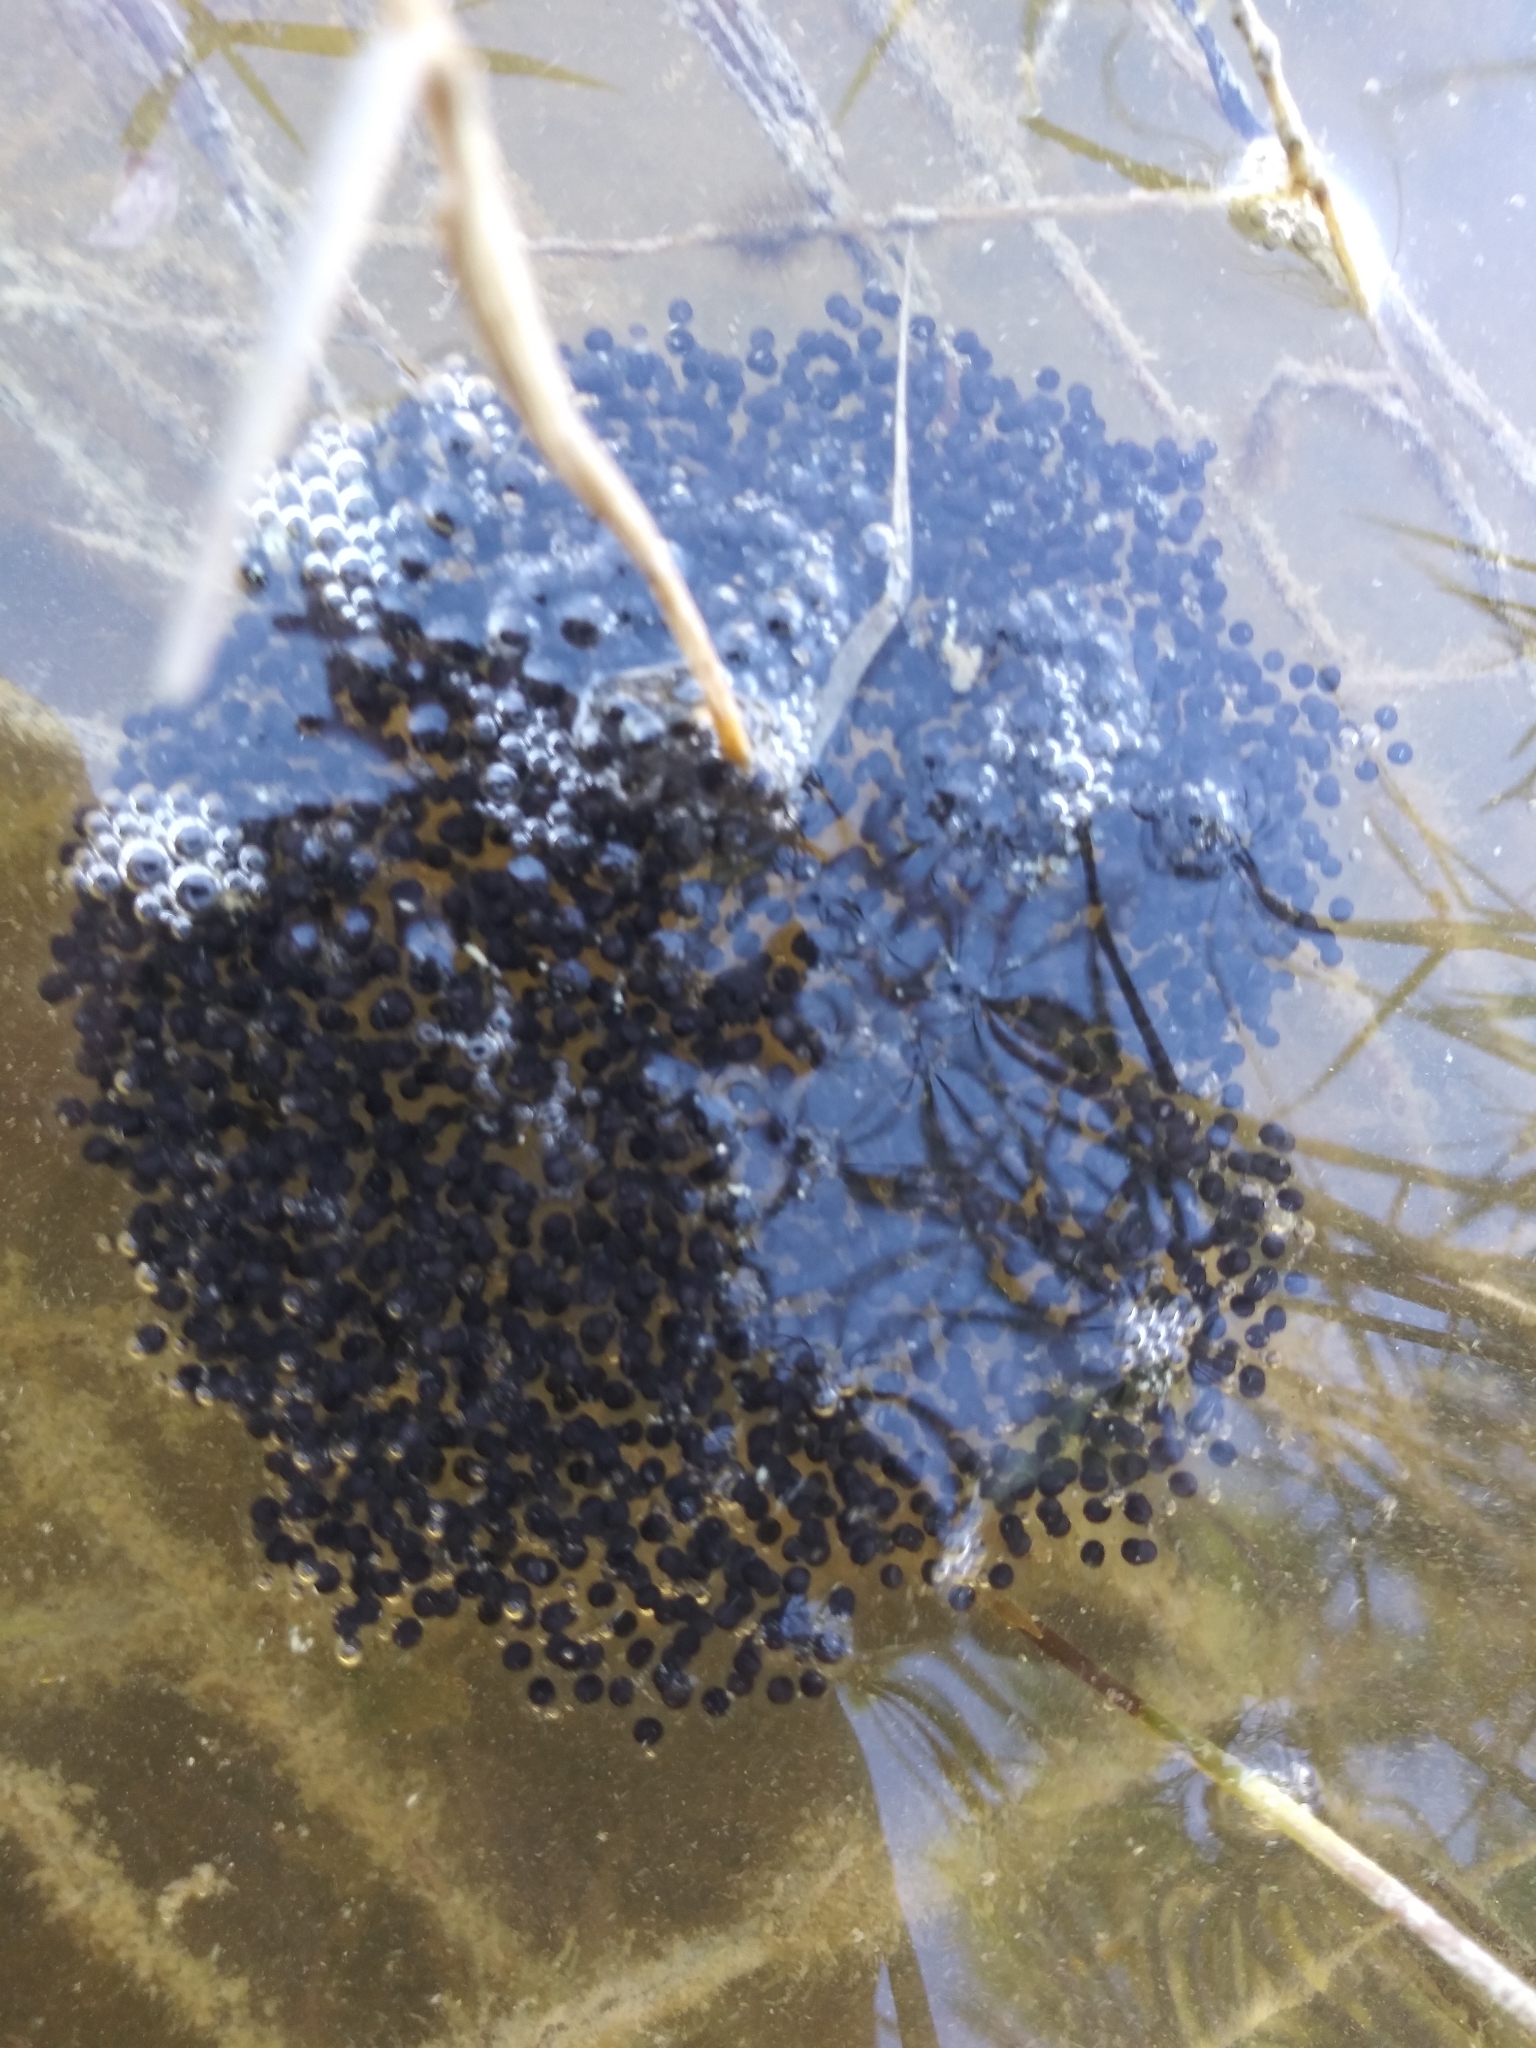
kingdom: Animalia
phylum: Chordata
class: Amphibia
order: Anura
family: Ranidae
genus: Lithobates
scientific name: Lithobates sphenocephalus
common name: Southern leopard frog
